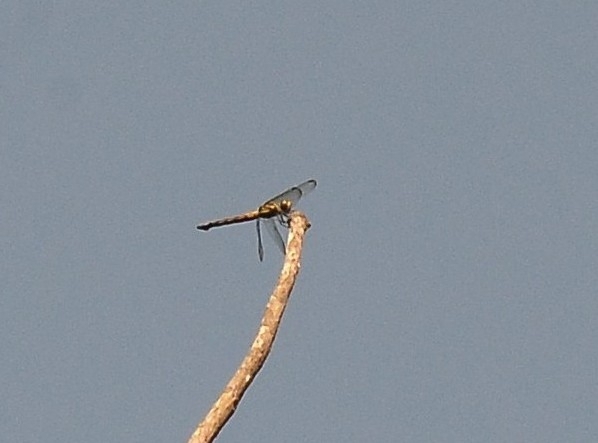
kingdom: Animalia
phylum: Arthropoda
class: Insecta
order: Odonata
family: Libellulidae
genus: Potamarcha
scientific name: Potamarcha congener
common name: Blue chaser
